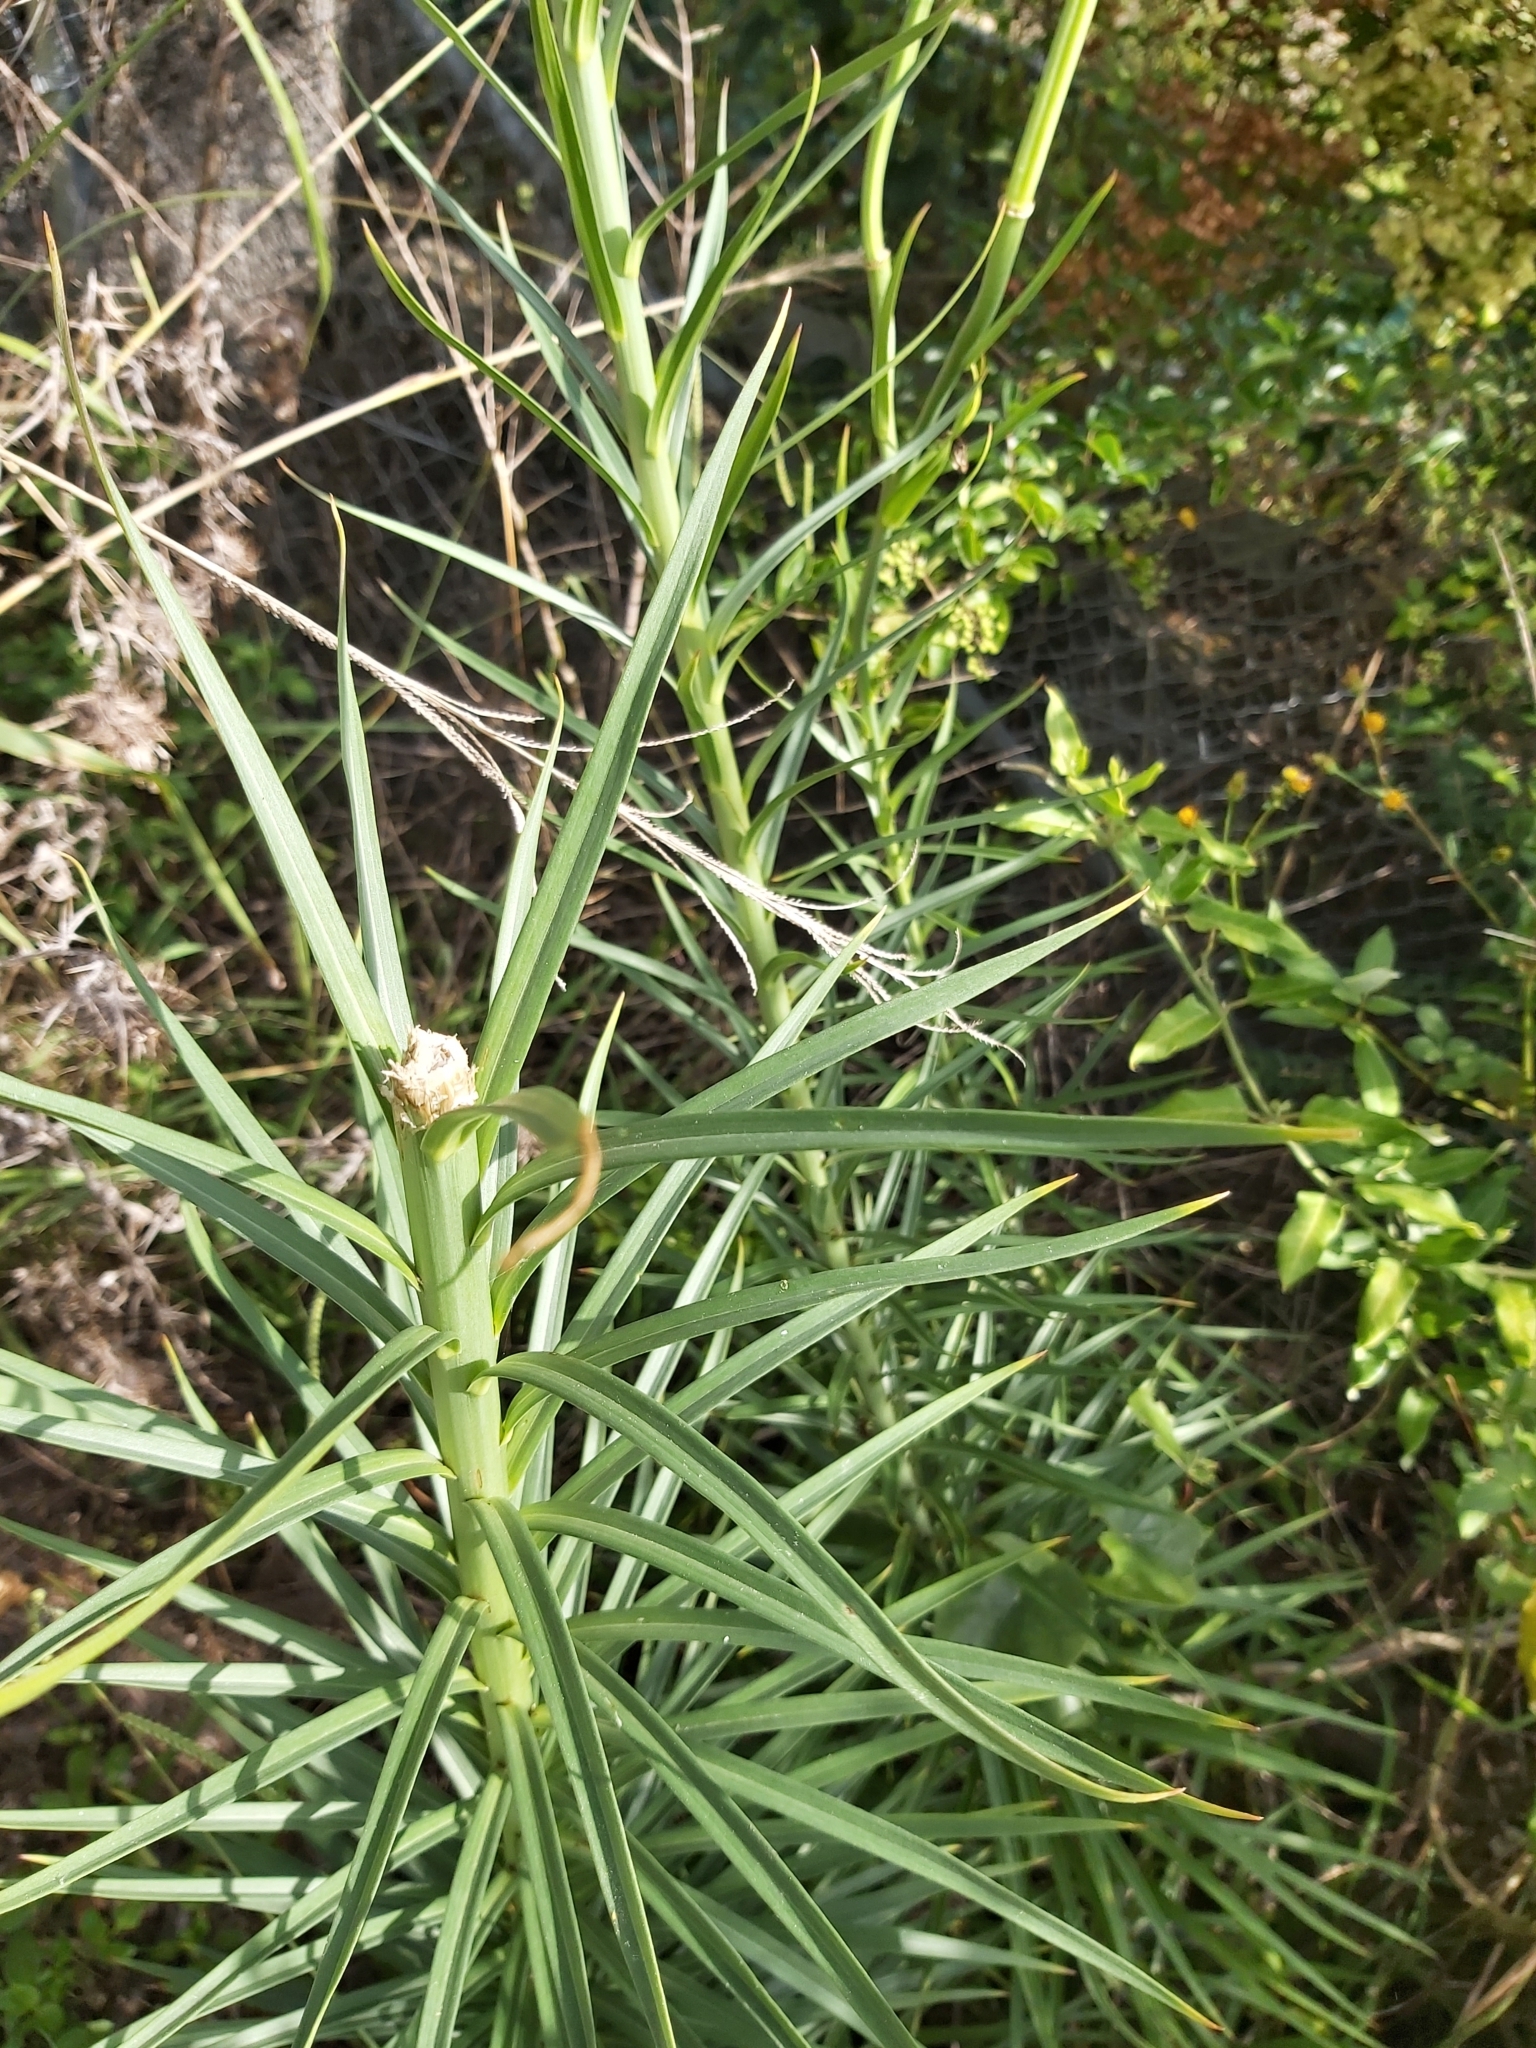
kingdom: Plantae
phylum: Tracheophyta
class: Liliopsida
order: Liliales
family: Liliaceae
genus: Lilium
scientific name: Lilium formosanum
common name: Formosa lily
